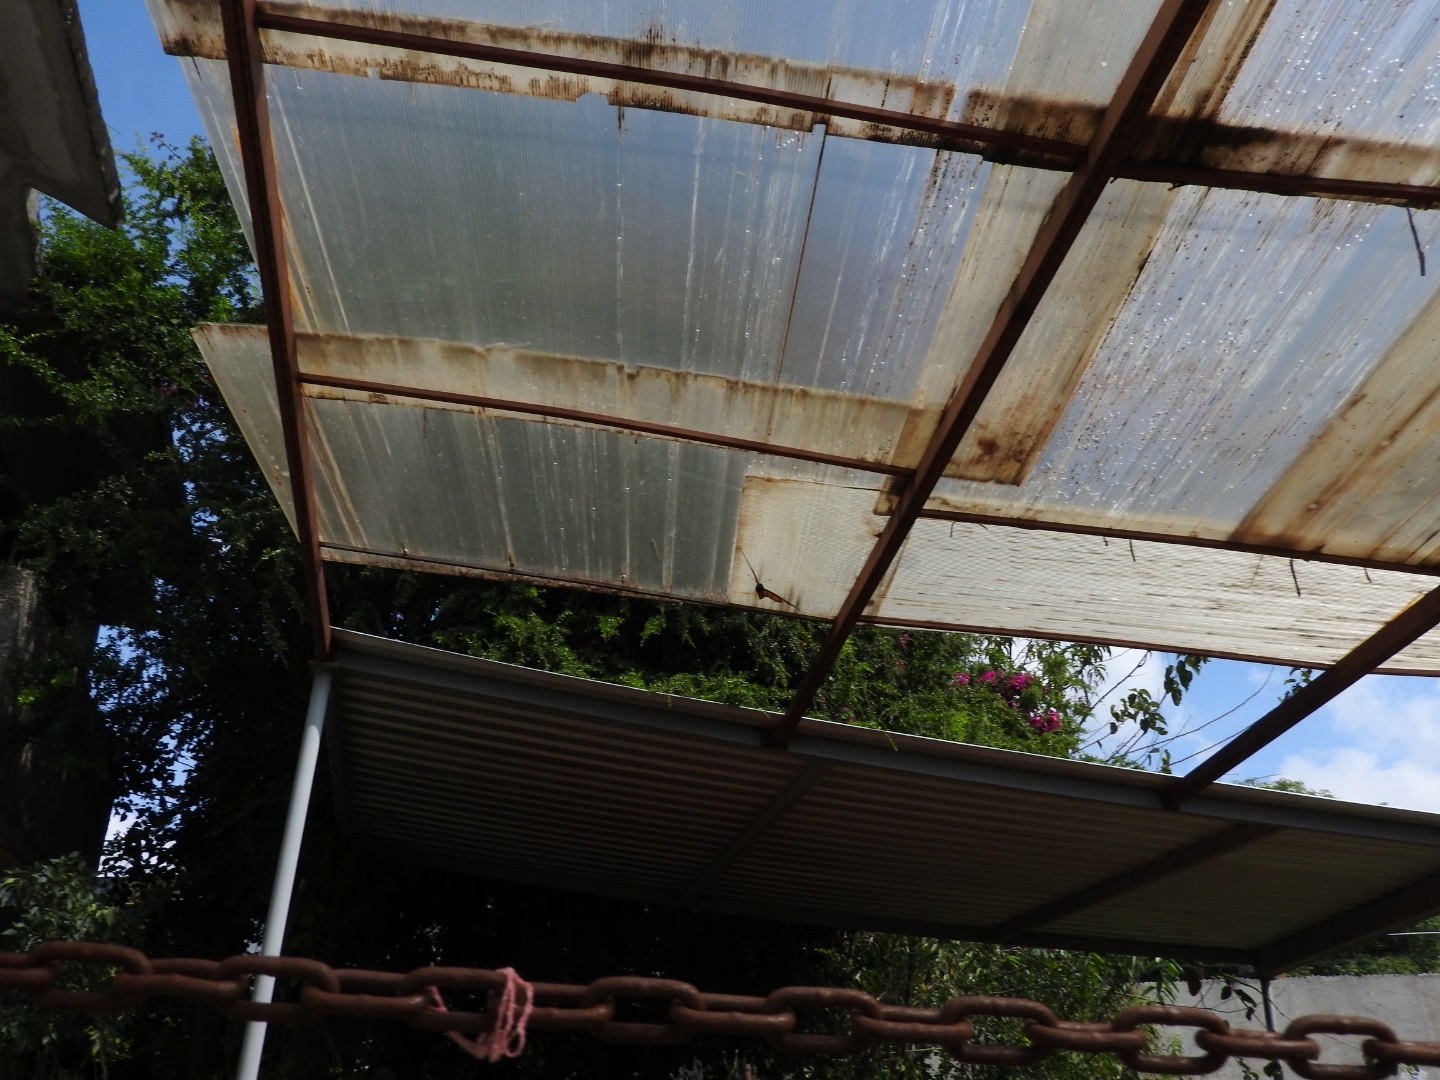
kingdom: Animalia
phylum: Arthropoda
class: Insecta
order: Lepidoptera
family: Nymphalidae
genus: Danaus
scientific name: Danaus plexippus
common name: Monarch
